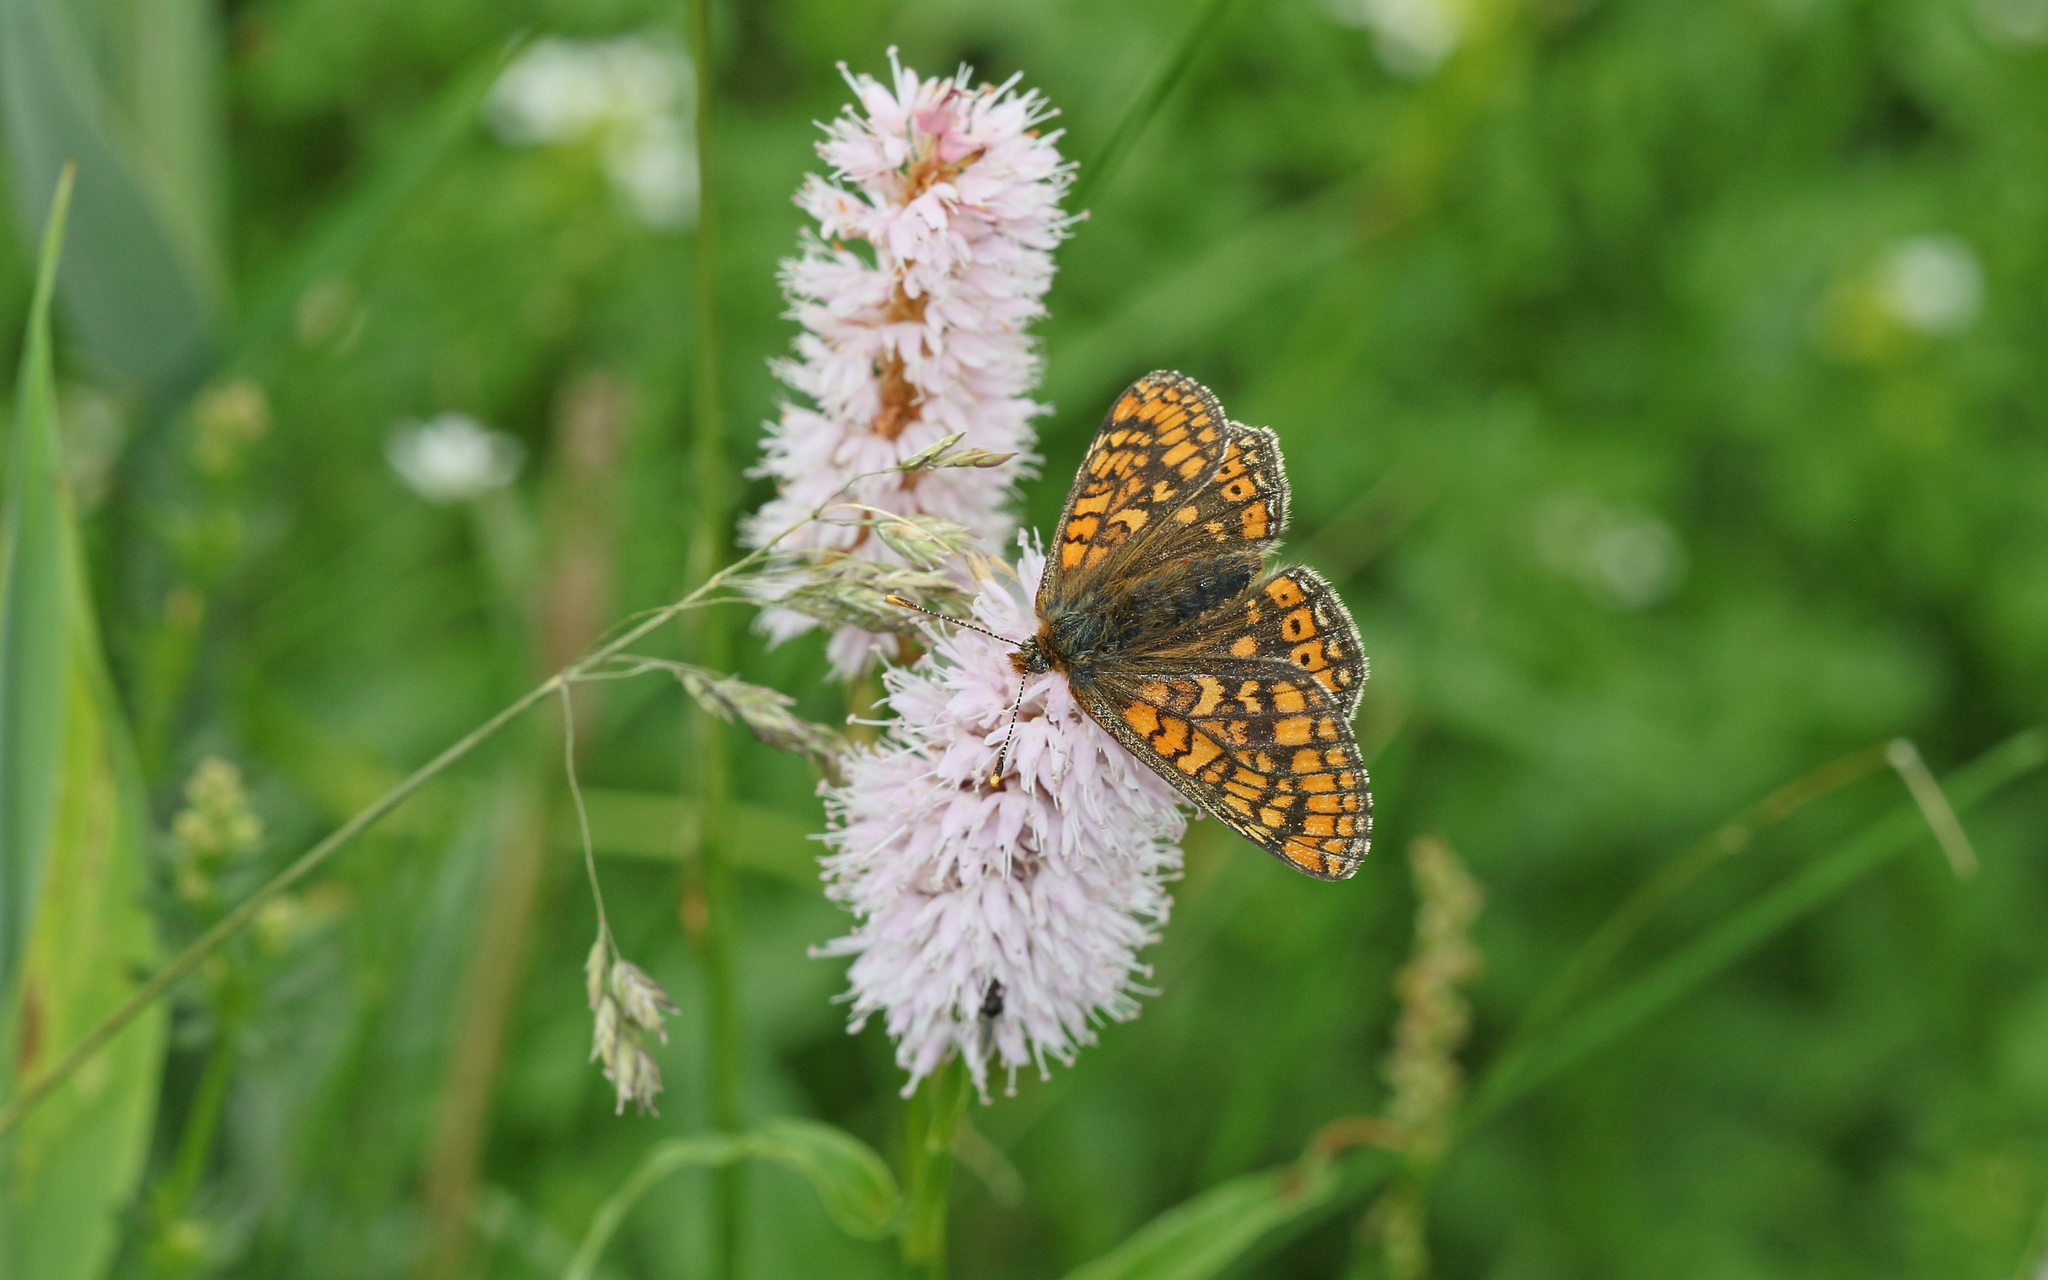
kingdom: Animalia
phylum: Arthropoda
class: Insecta
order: Lepidoptera
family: Nymphalidae
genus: Euphydryas
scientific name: Euphydryas aurinia
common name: Marsh fritillary
